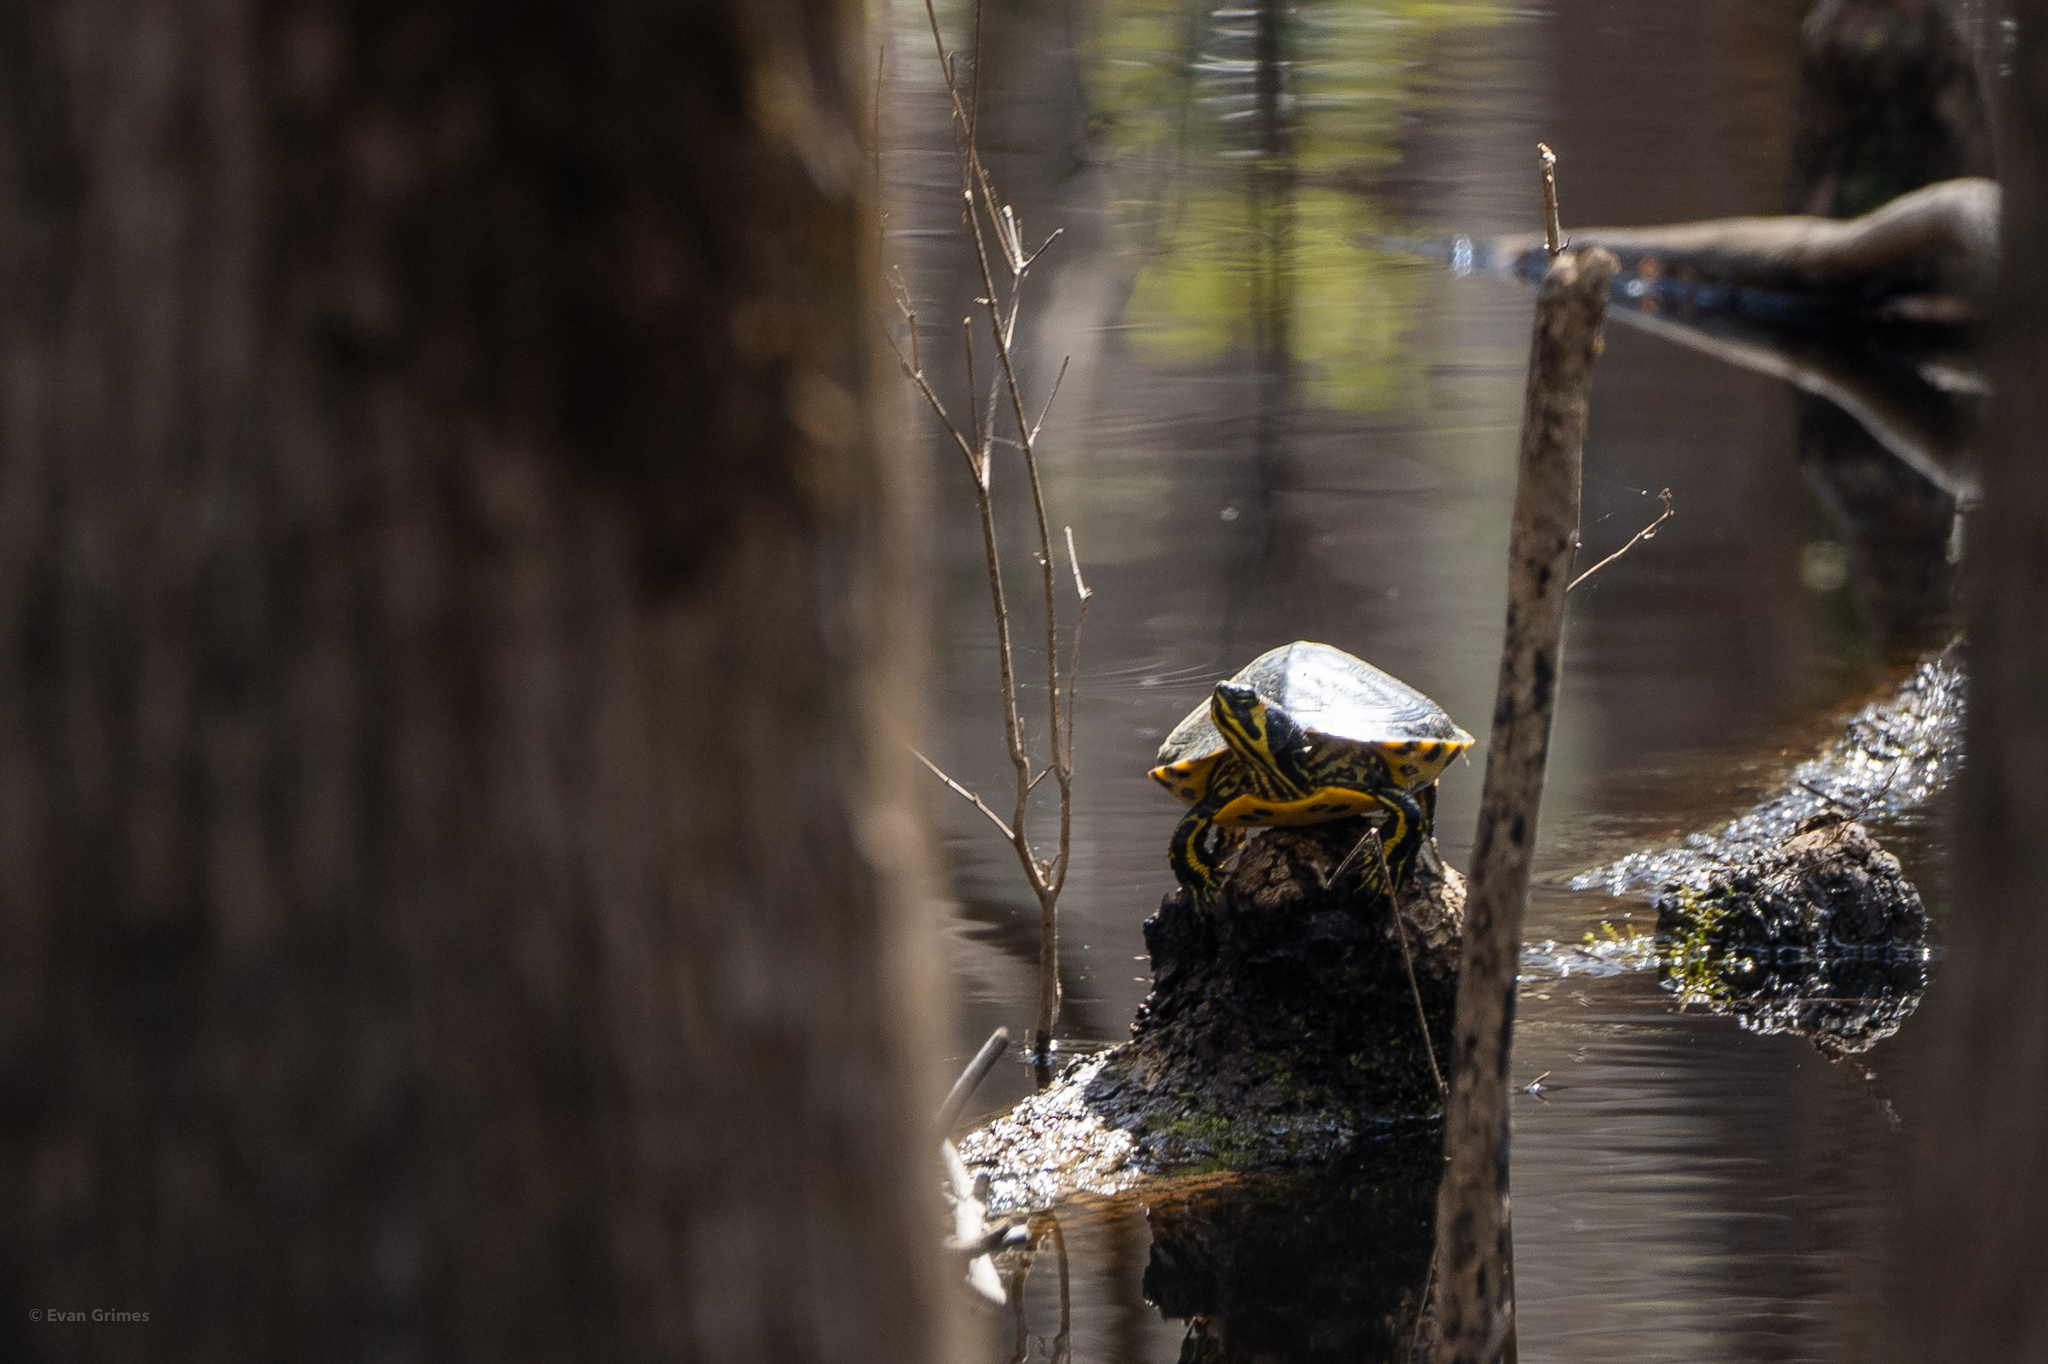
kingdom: Animalia
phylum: Chordata
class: Testudines
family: Emydidae
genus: Trachemys
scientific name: Trachemys scripta
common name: Slider
